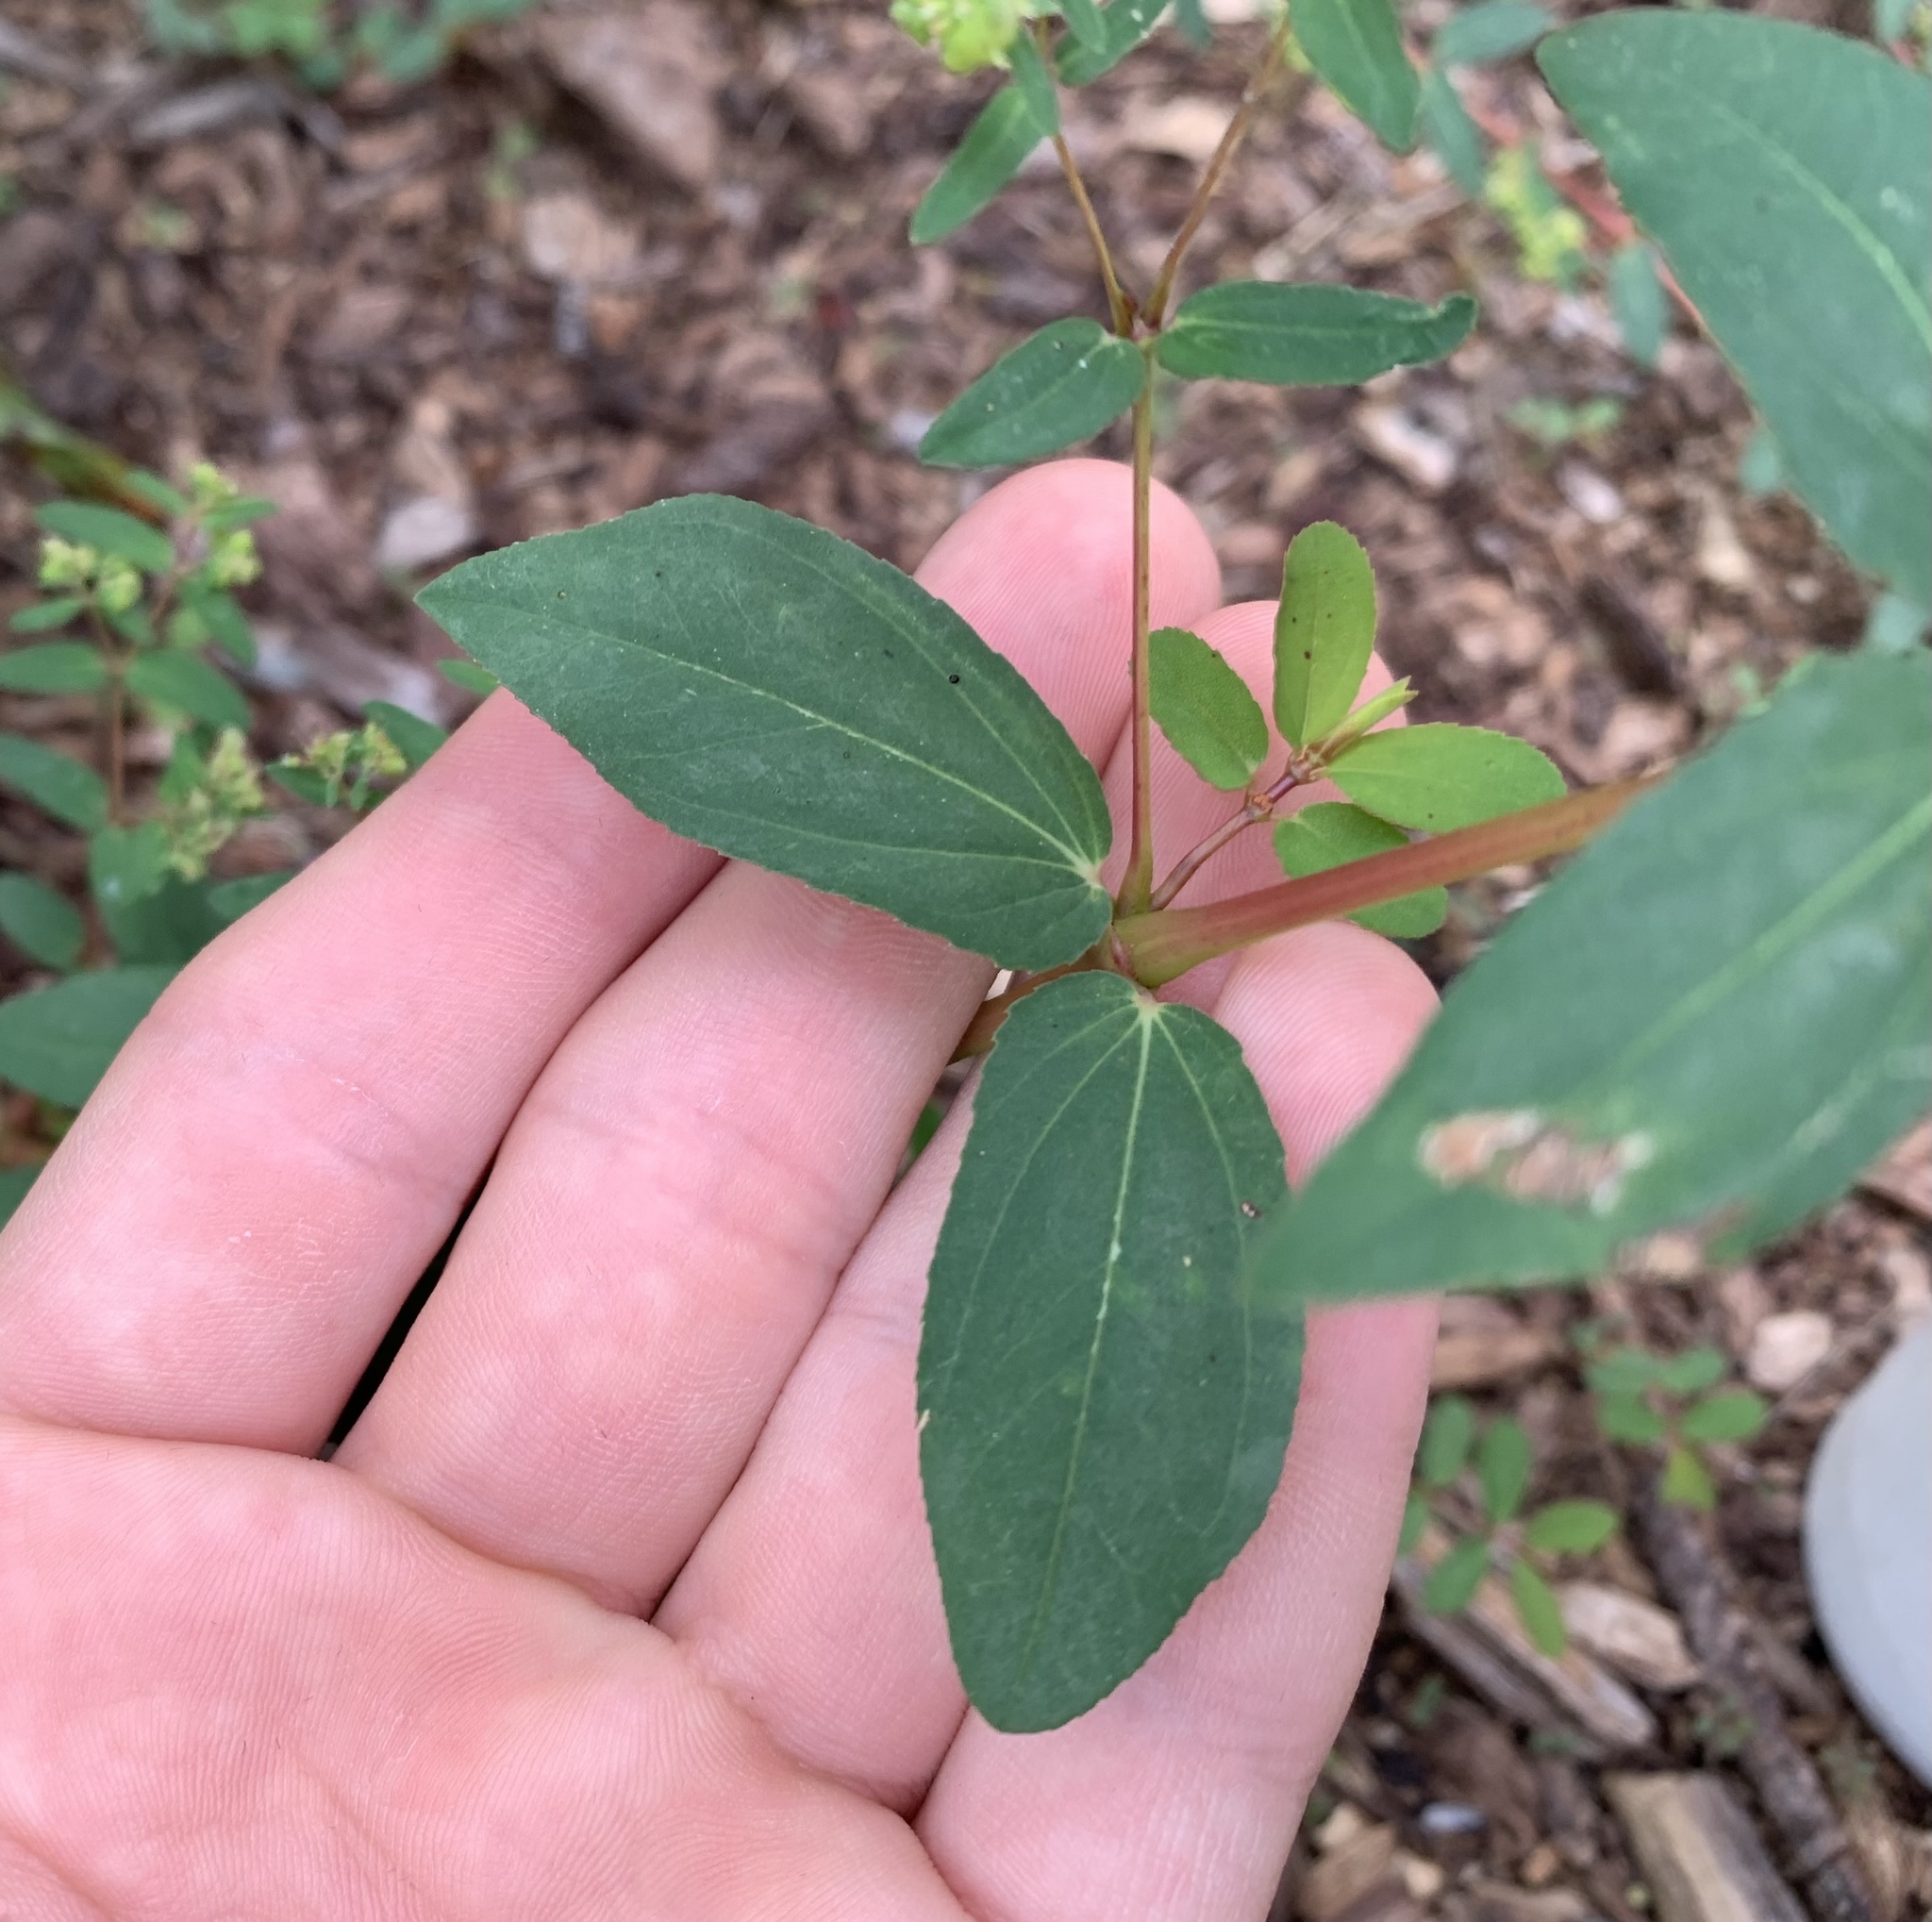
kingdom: Plantae
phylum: Tracheophyta
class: Magnoliopsida
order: Malpighiales
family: Euphorbiaceae
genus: Euphorbia
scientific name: Euphorbia hyssopifolia
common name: Hyssopleaf sandmat
